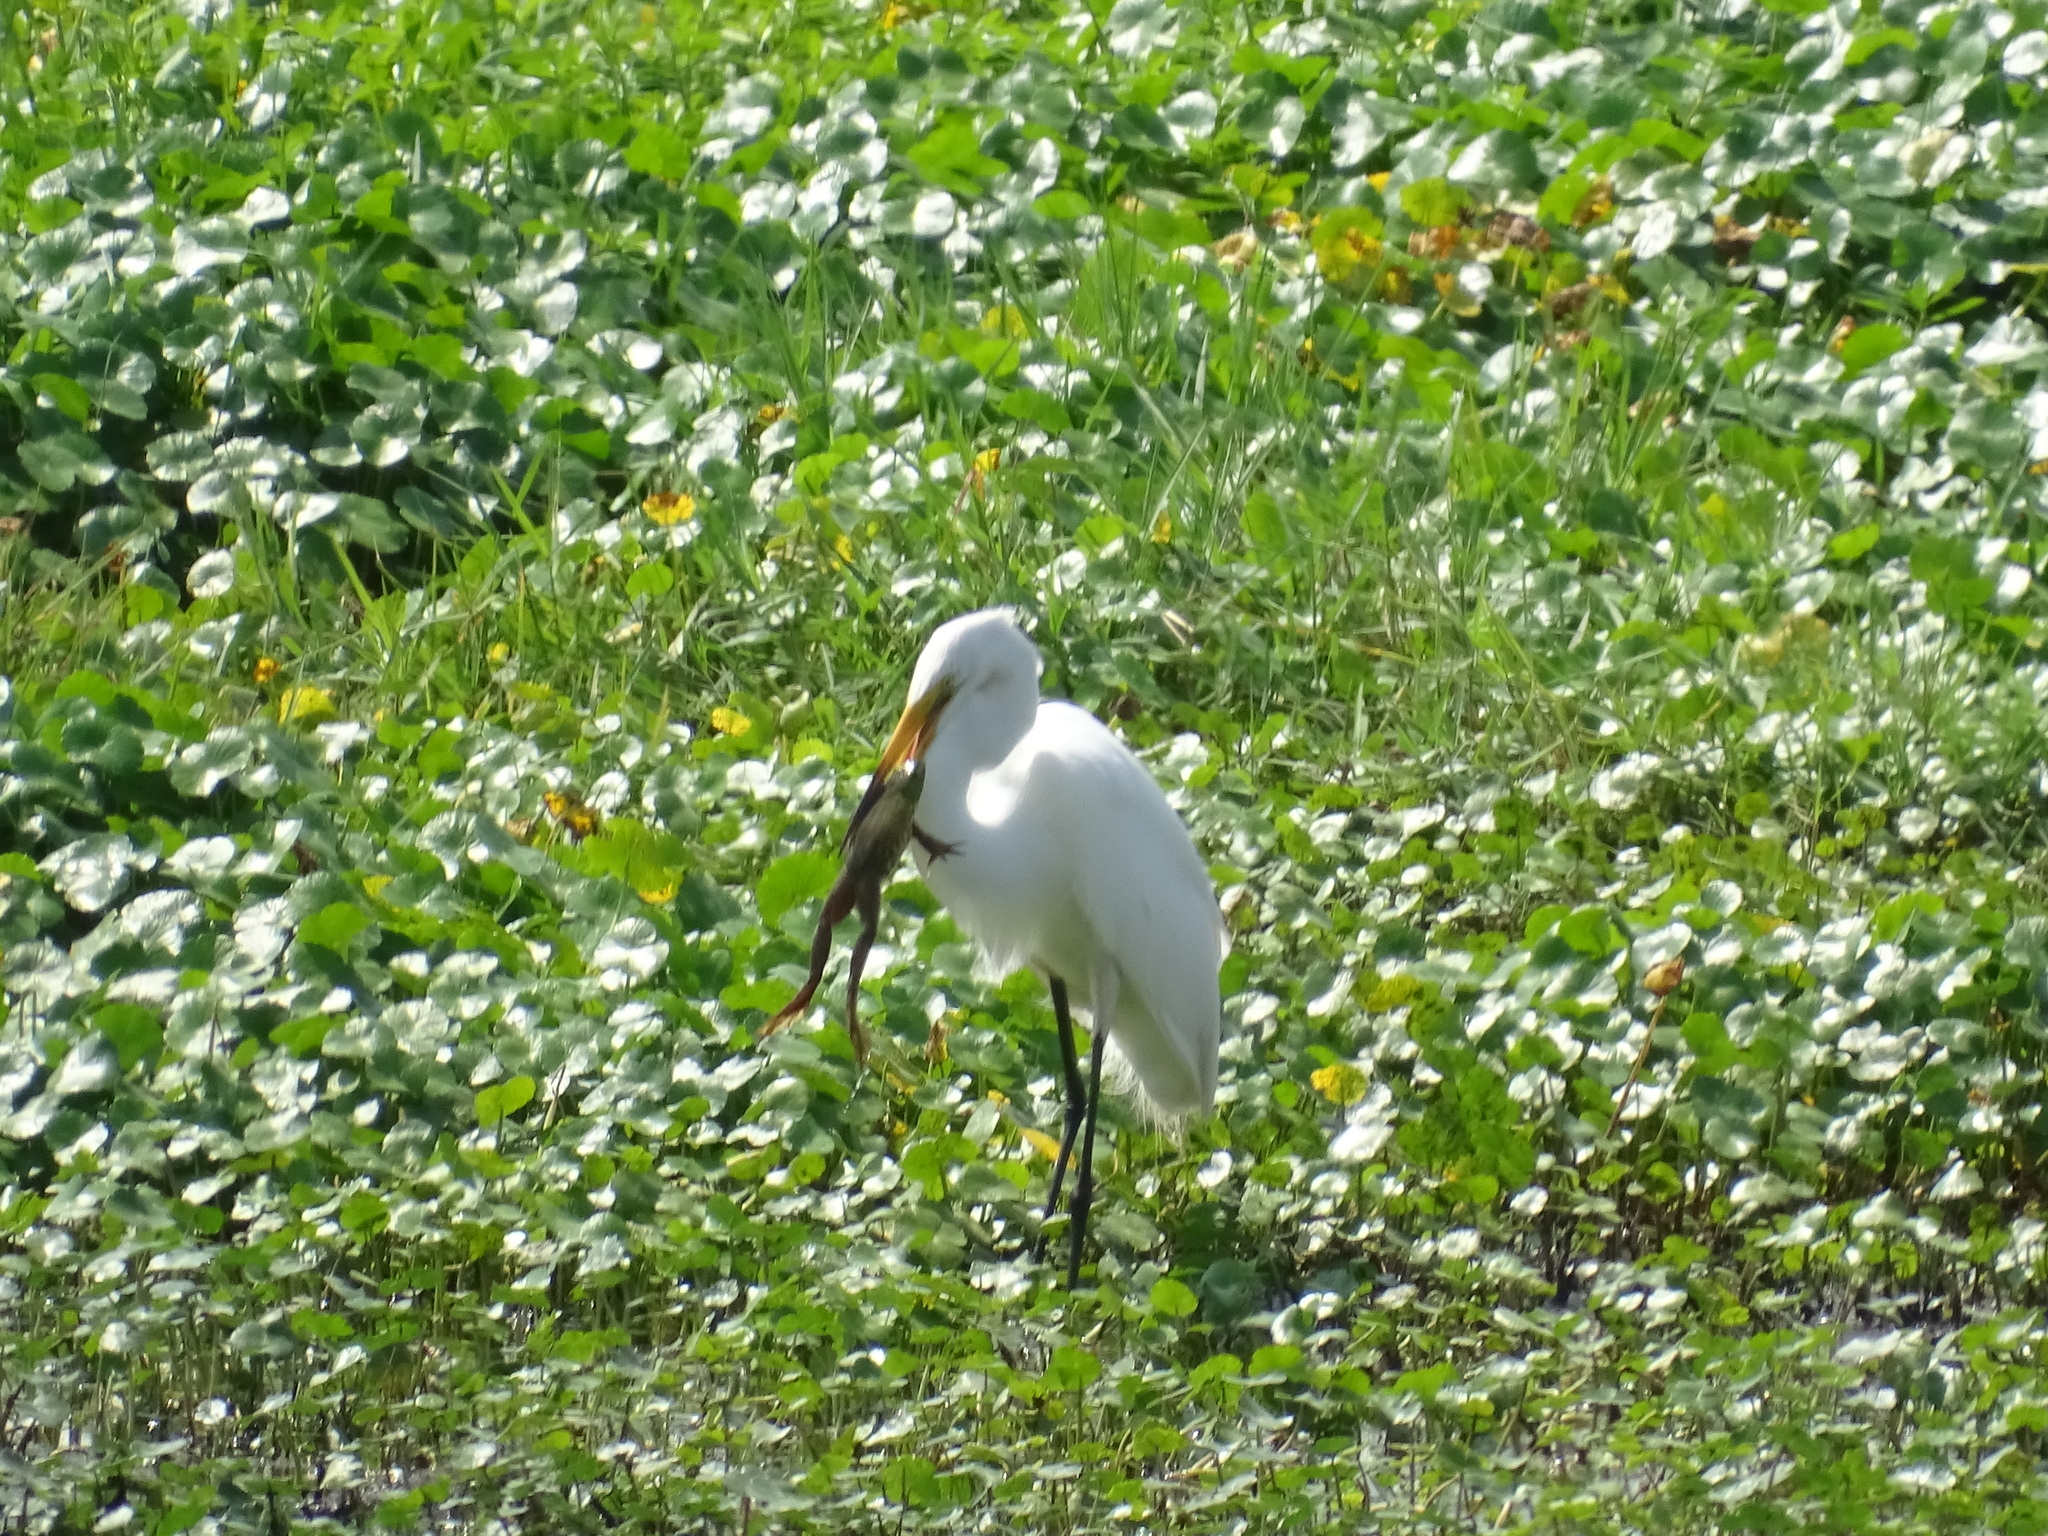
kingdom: Animalia
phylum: Chordata
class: Aves
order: Pelecaniformes
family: Ardeidae
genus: Ardea
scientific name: Ardea alba
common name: Great egret
